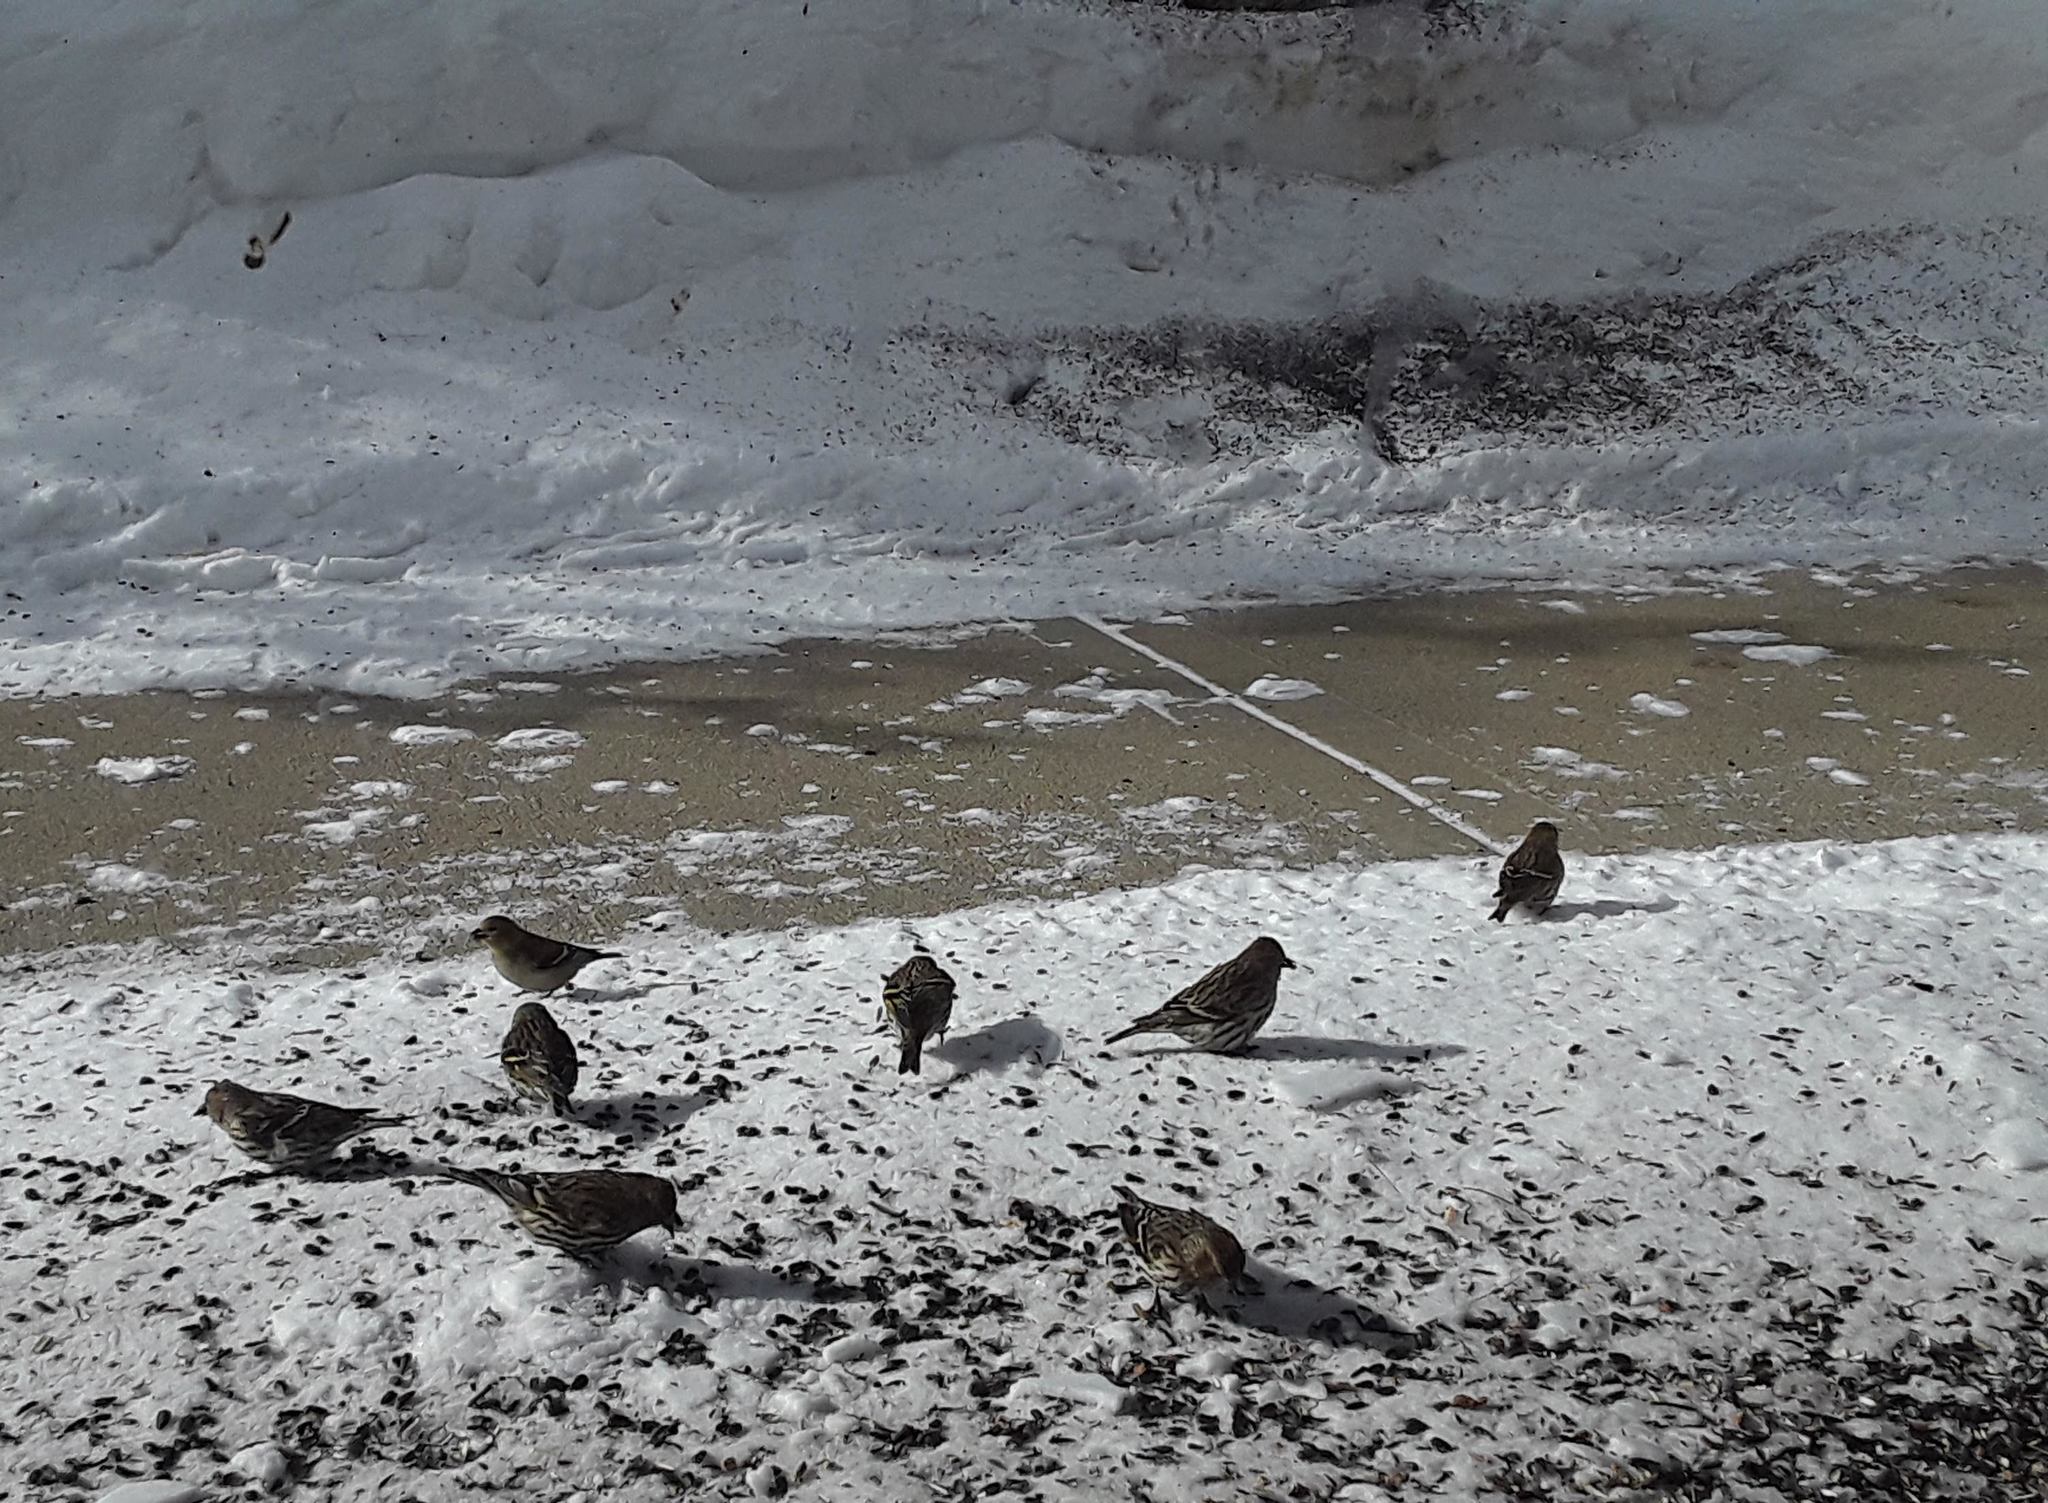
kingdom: Animalia
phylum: Chordata
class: Aves
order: Passeriformes
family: Fringillidae
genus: Spinus
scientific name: Spinus pinus
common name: Pine siskin
